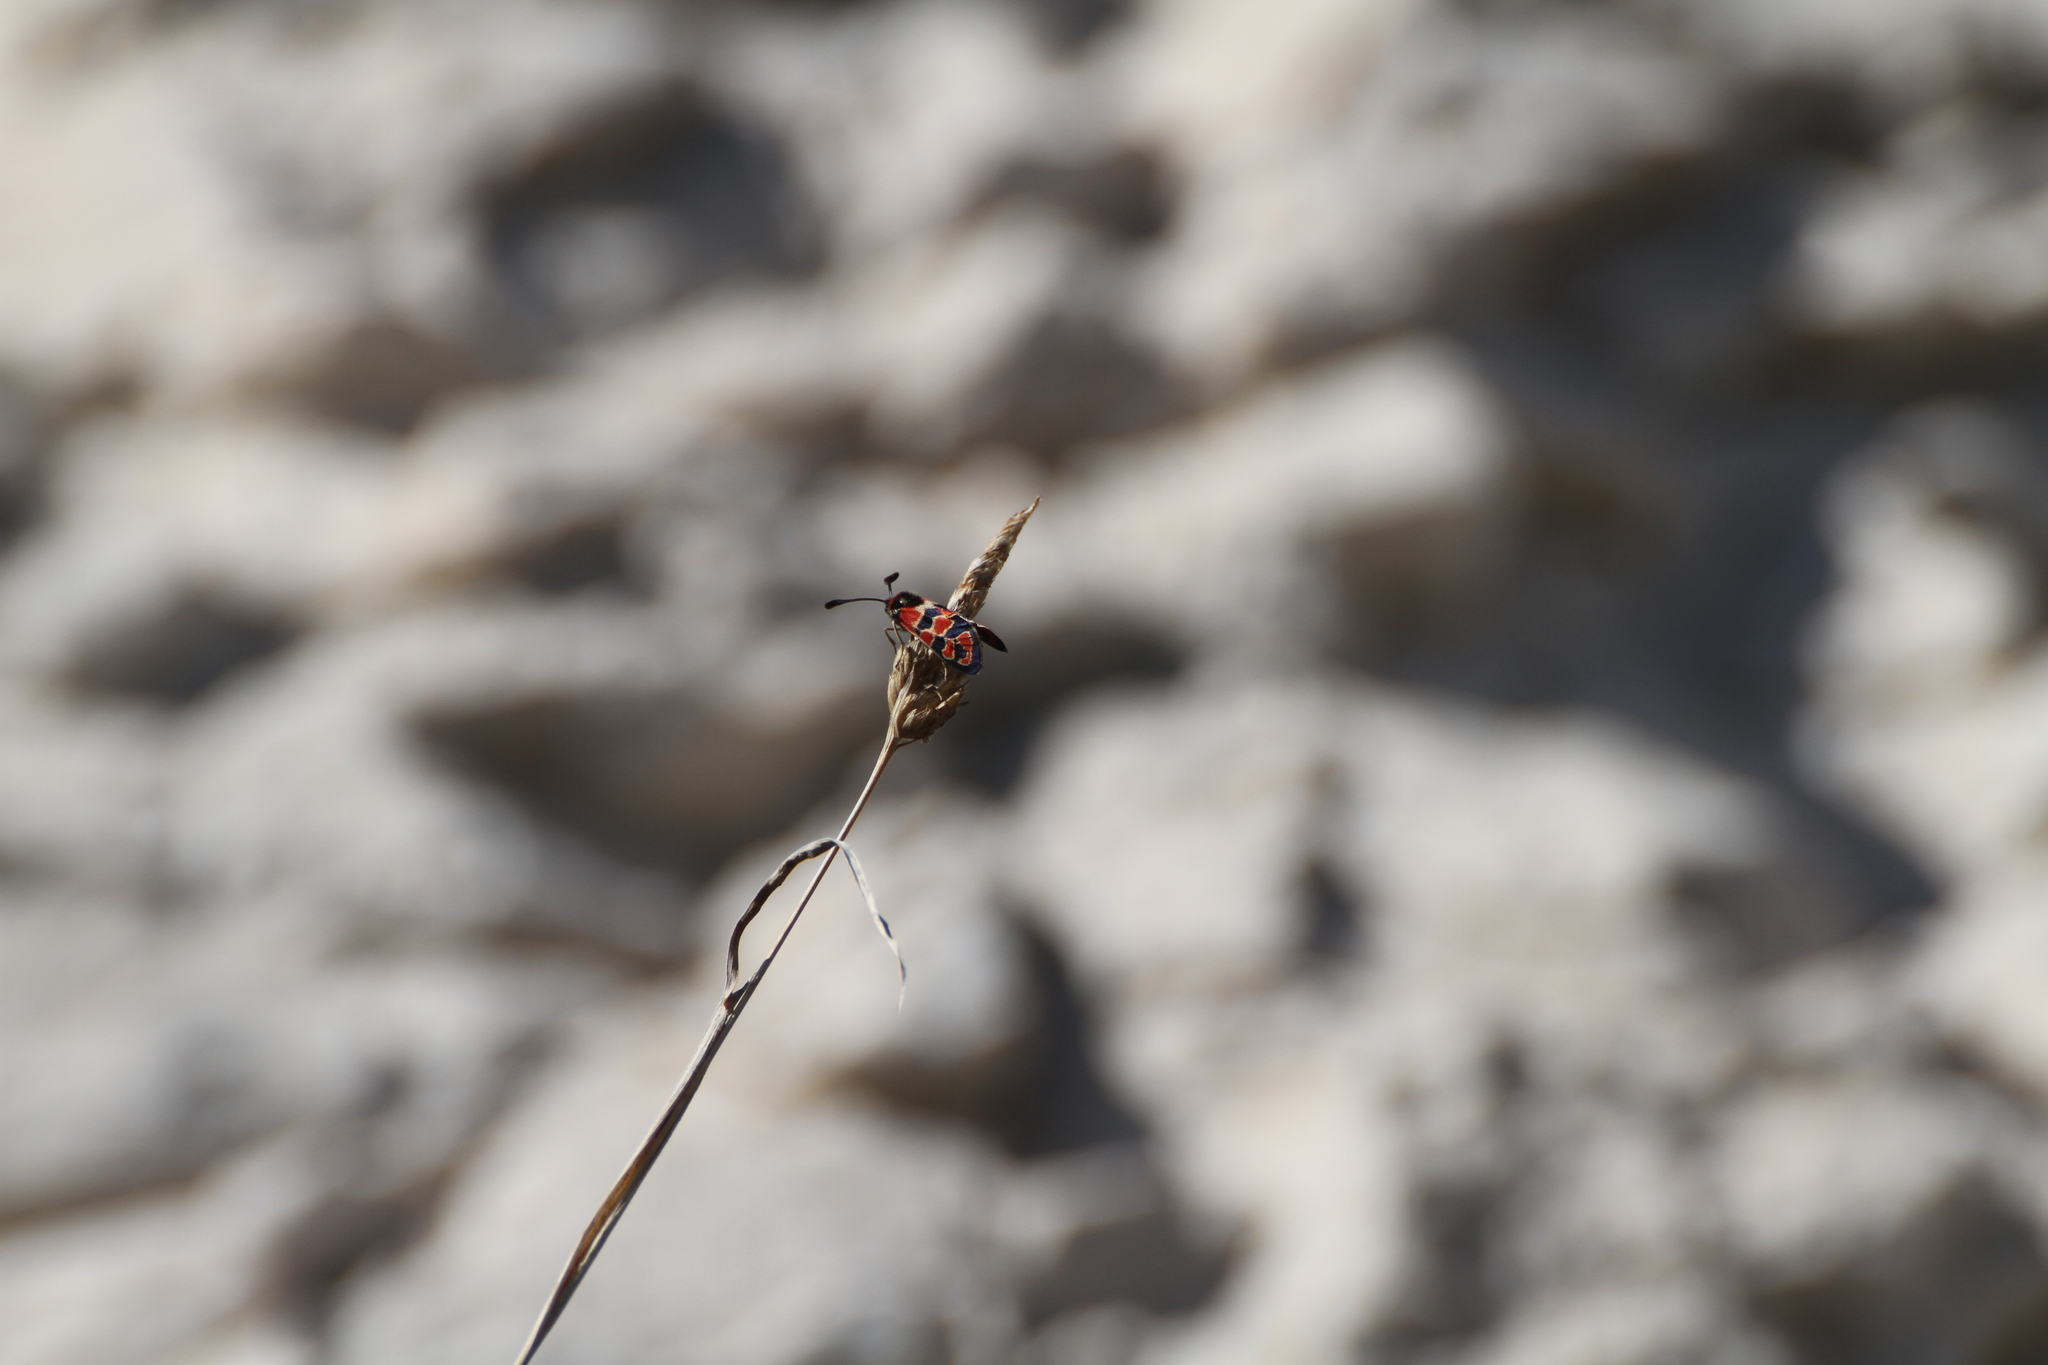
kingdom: Animalia
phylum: Arthropoda
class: Insecta
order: Lepidoptera
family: Zygaenidae
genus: Zygaena
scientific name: Zygaena fausta
